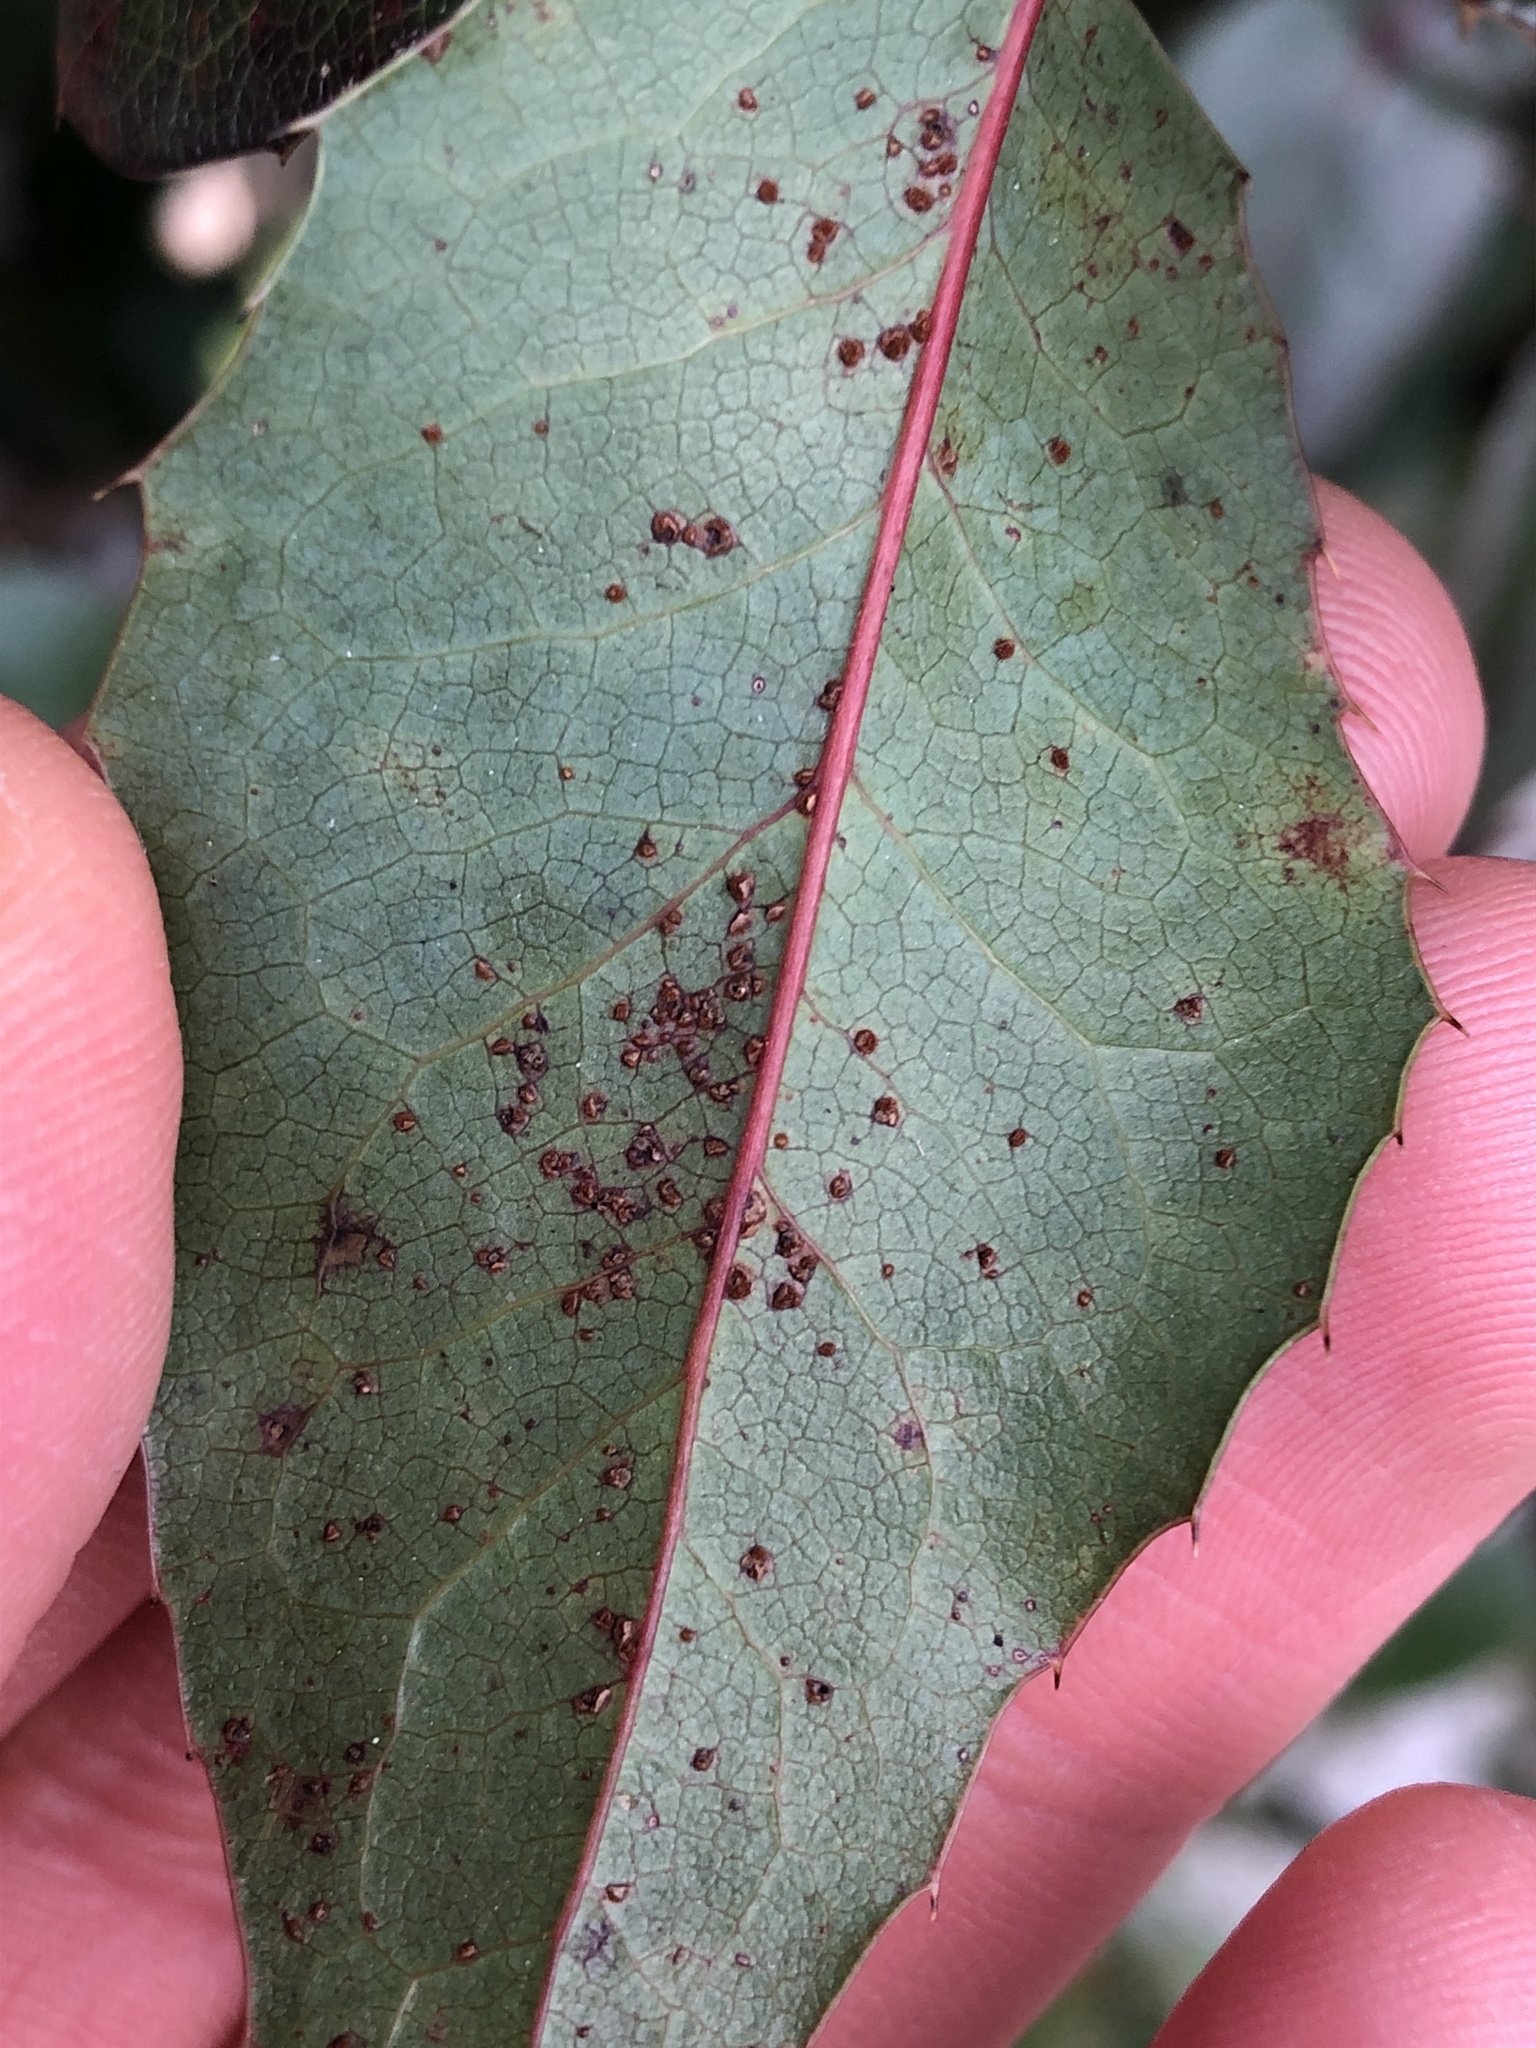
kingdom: Fungi
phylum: Basidiomycota
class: Pucciniomycetes
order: Pucciniales
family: Pucciniaceae
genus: Cumminsiella
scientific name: Cumminsiella mirabilissima
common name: Mahonia rust
